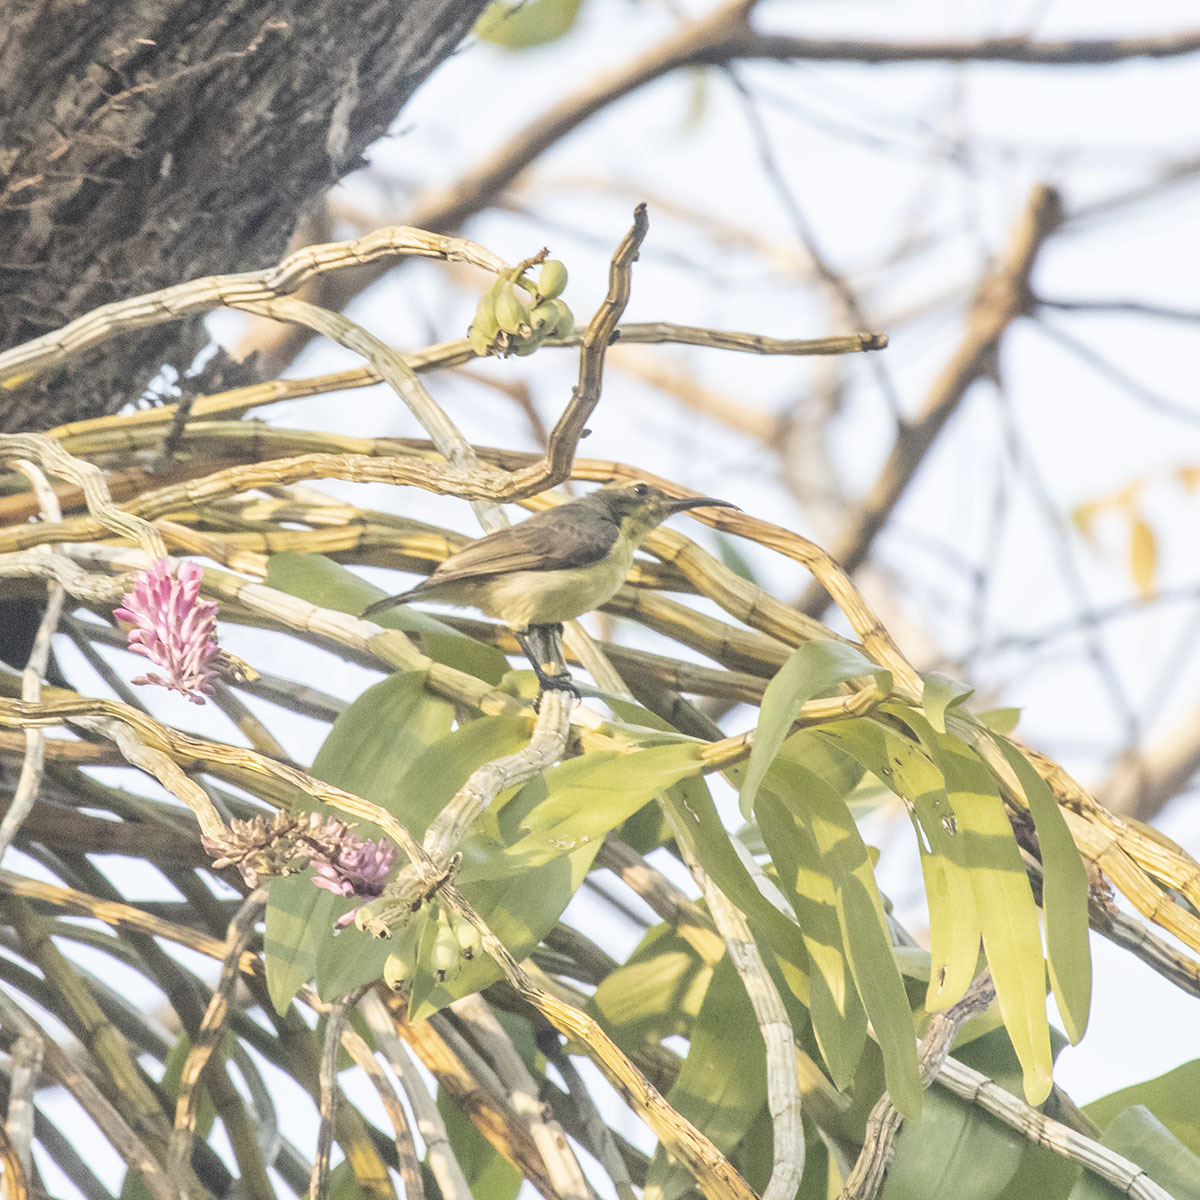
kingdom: Animalia
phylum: Chordata
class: Aves
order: Passeriformes
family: Nectariniidae
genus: Cinnyris
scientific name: Cinnyris
